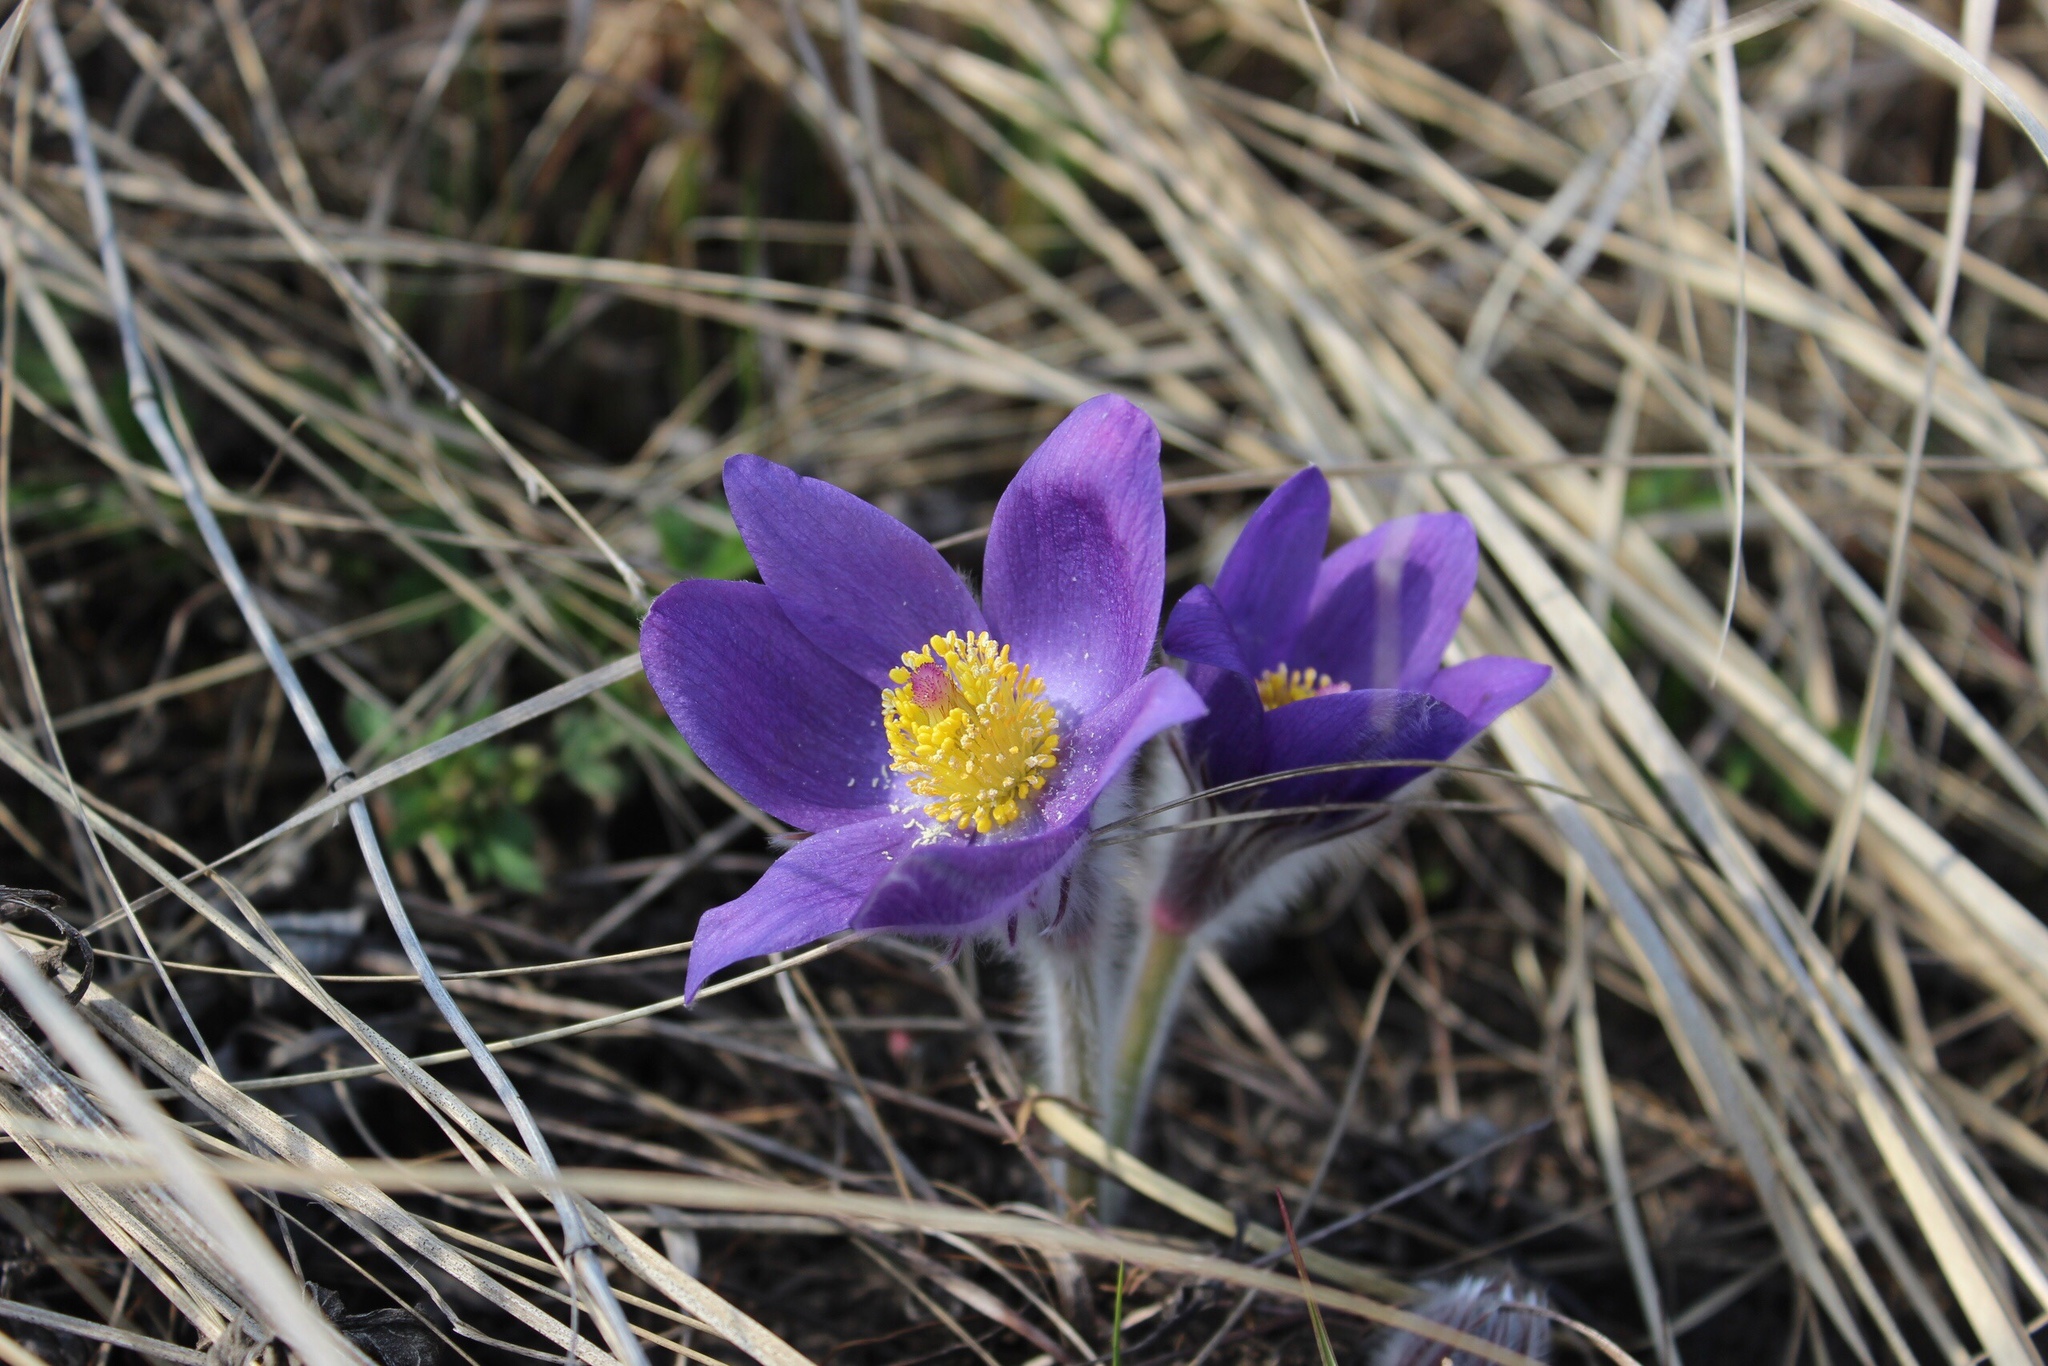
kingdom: Plantae
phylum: Tracheophyta
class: Magnoliopsida
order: Ranunculales
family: Ranunculaceae
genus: Pulsatilla
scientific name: Pulsatilla patens
